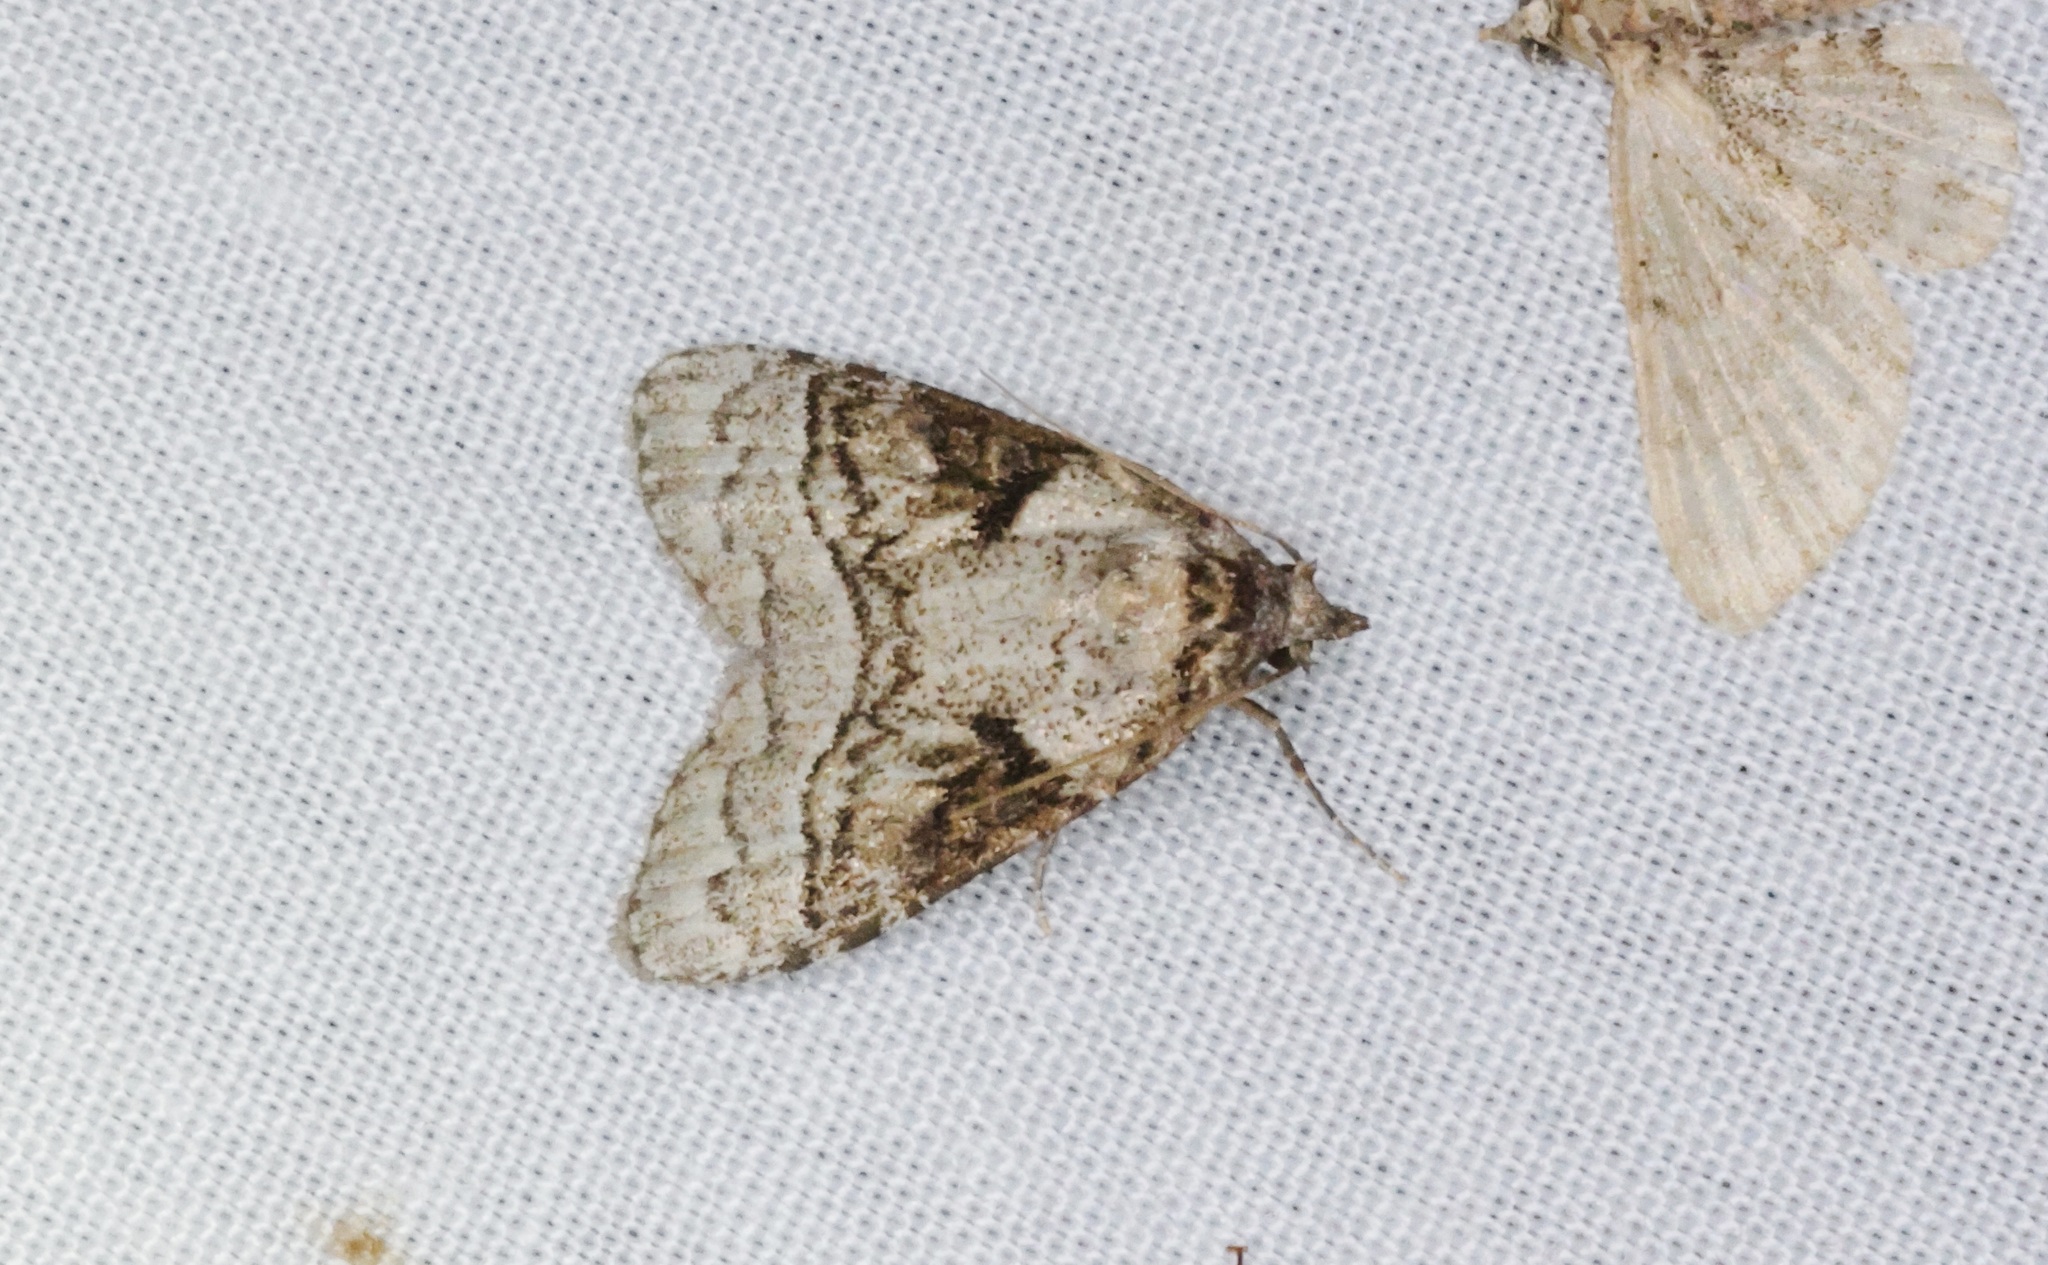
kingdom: Animalia
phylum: Arthropoda
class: Insecta
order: Lepidoptera
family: Nolidae
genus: Meganola
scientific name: Meganola triangulalis
